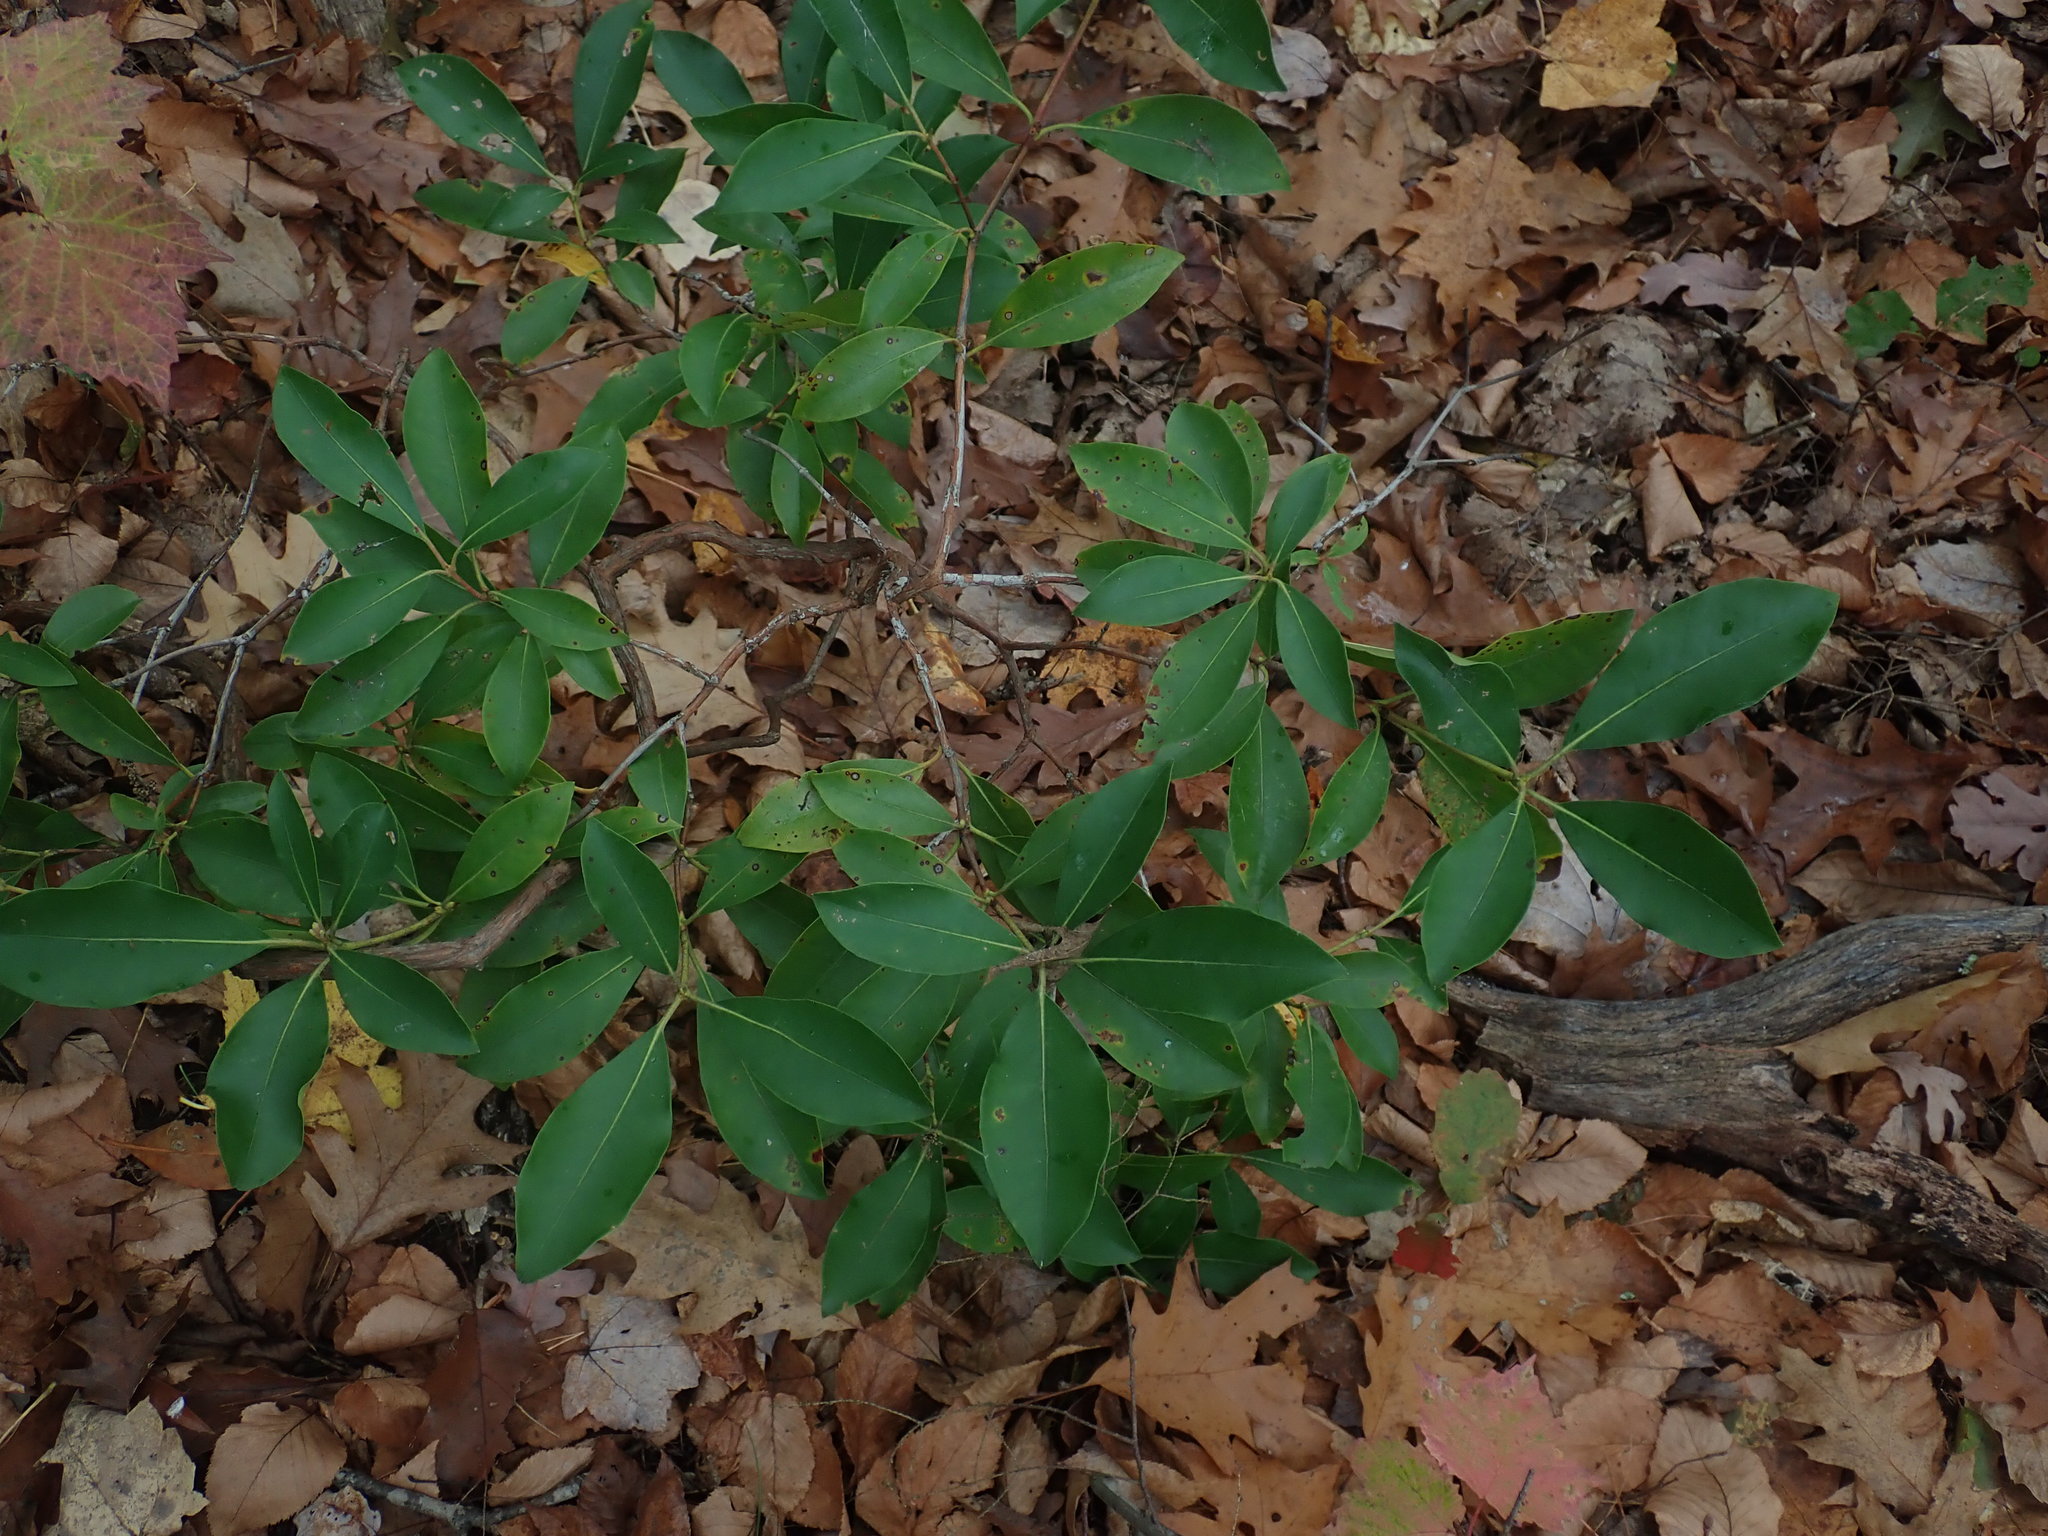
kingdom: Plantae
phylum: Tracheophyta
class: Magnoliopsida
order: Ericales
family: Ericaceae
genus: Kalmia
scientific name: Kalmia latifolia
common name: Mountain-laurel
